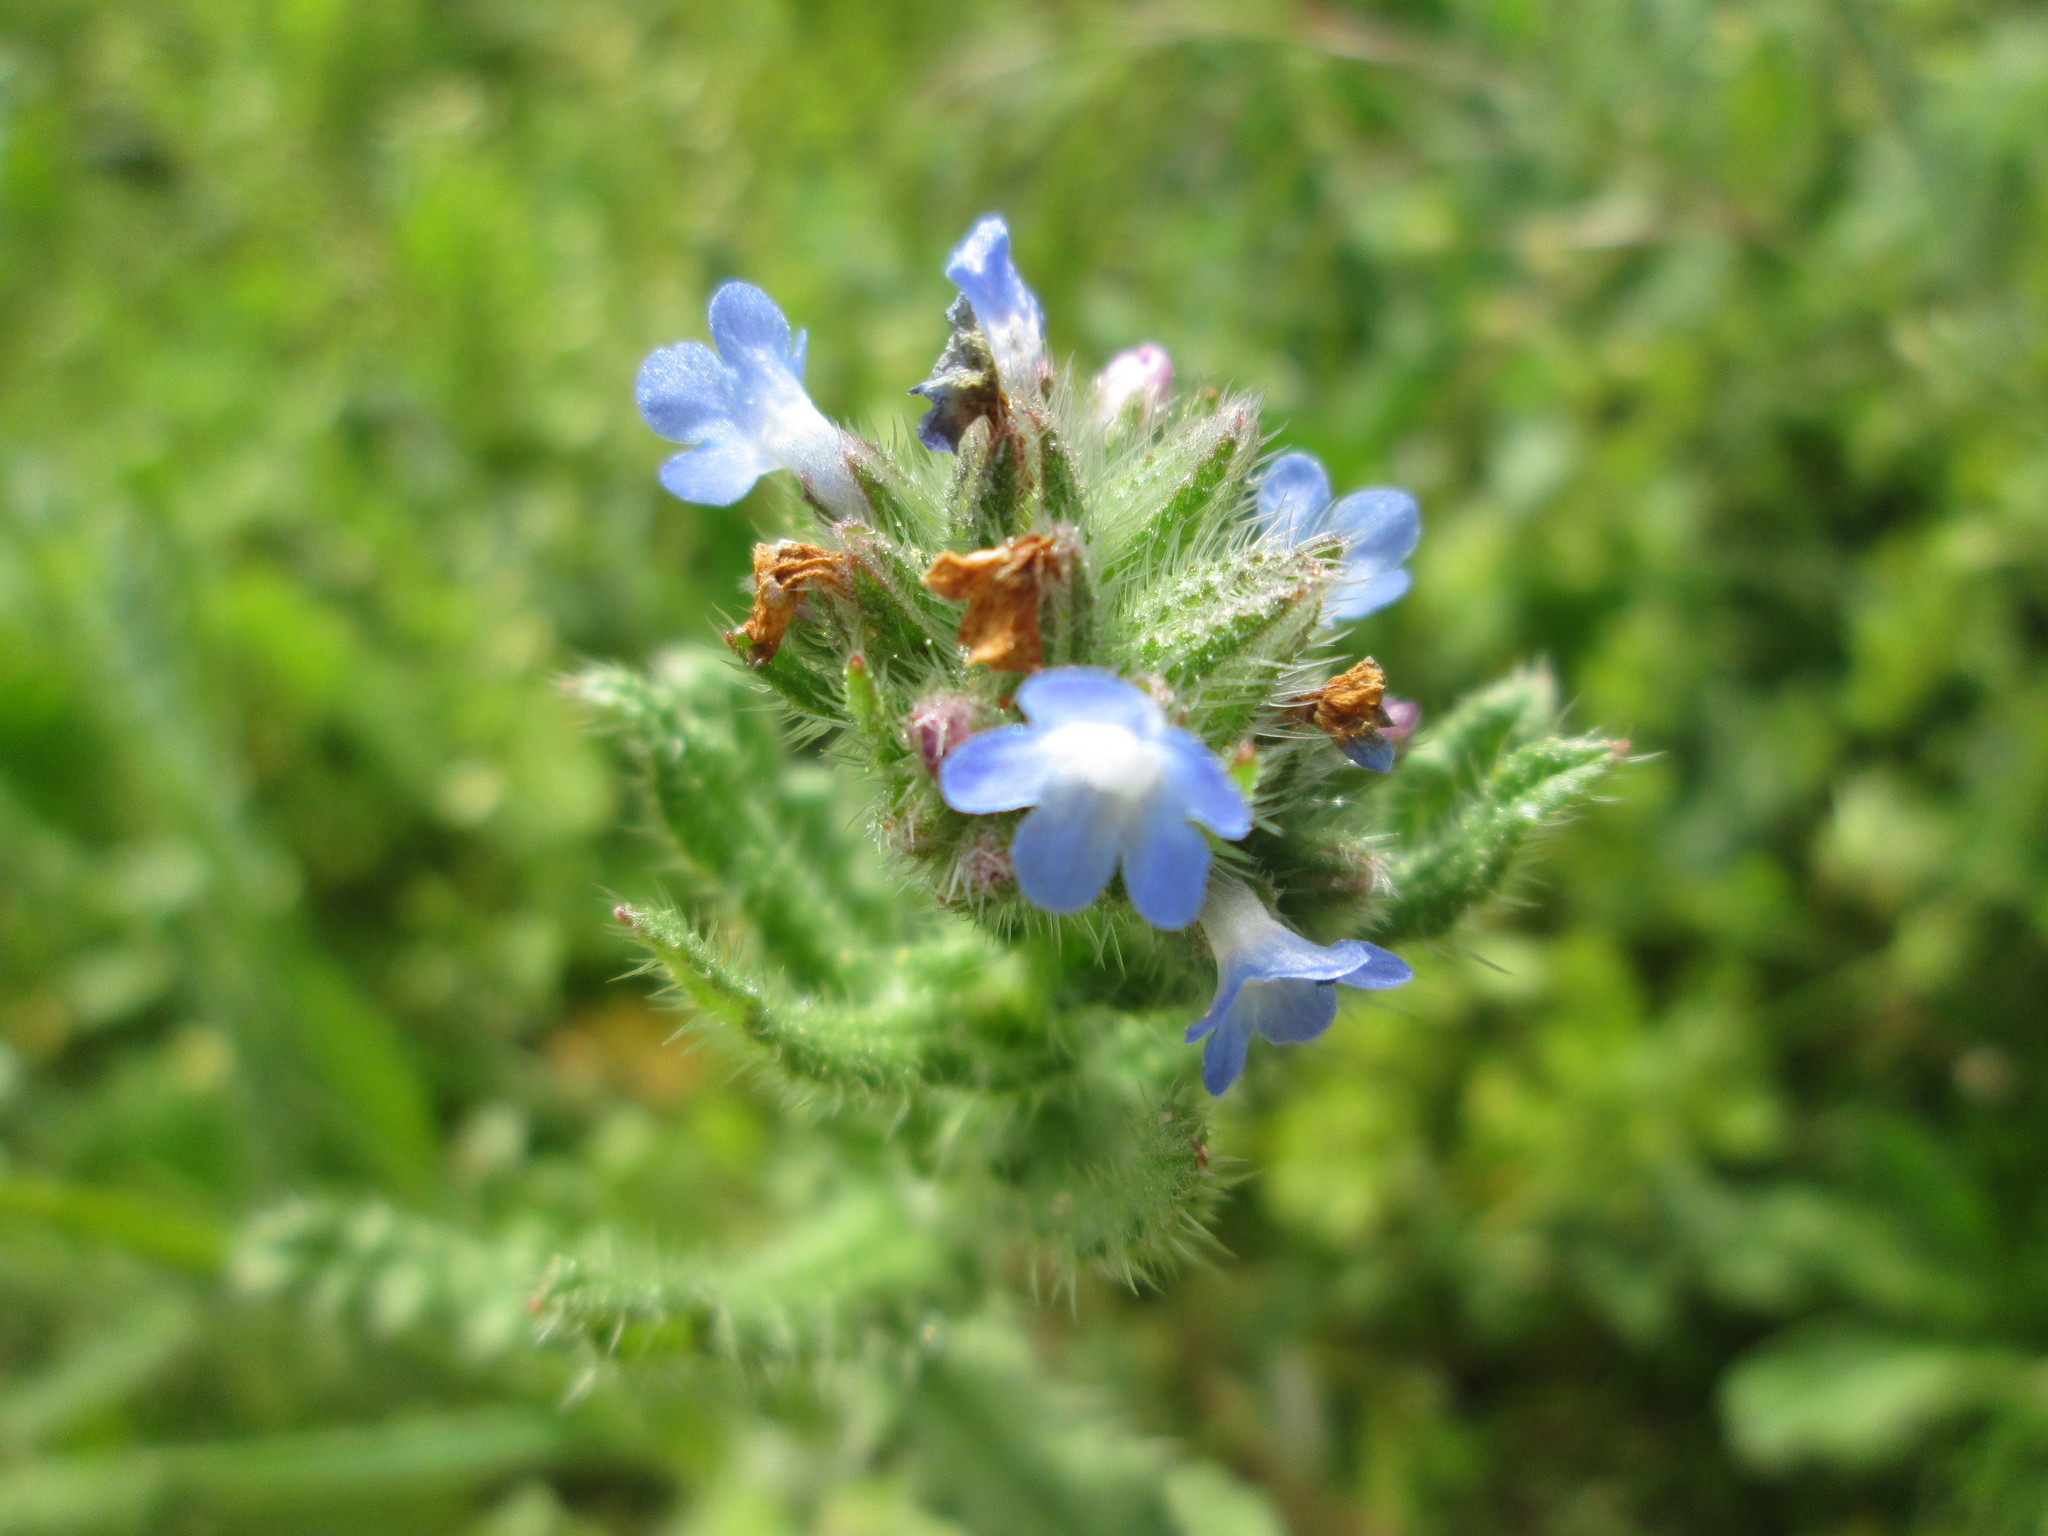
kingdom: Plantae
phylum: Tracheophyta
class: Magnoliopsida
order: Boraginales
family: Boraginaceae
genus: Lycopsis
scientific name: Lycopsis arvensis
